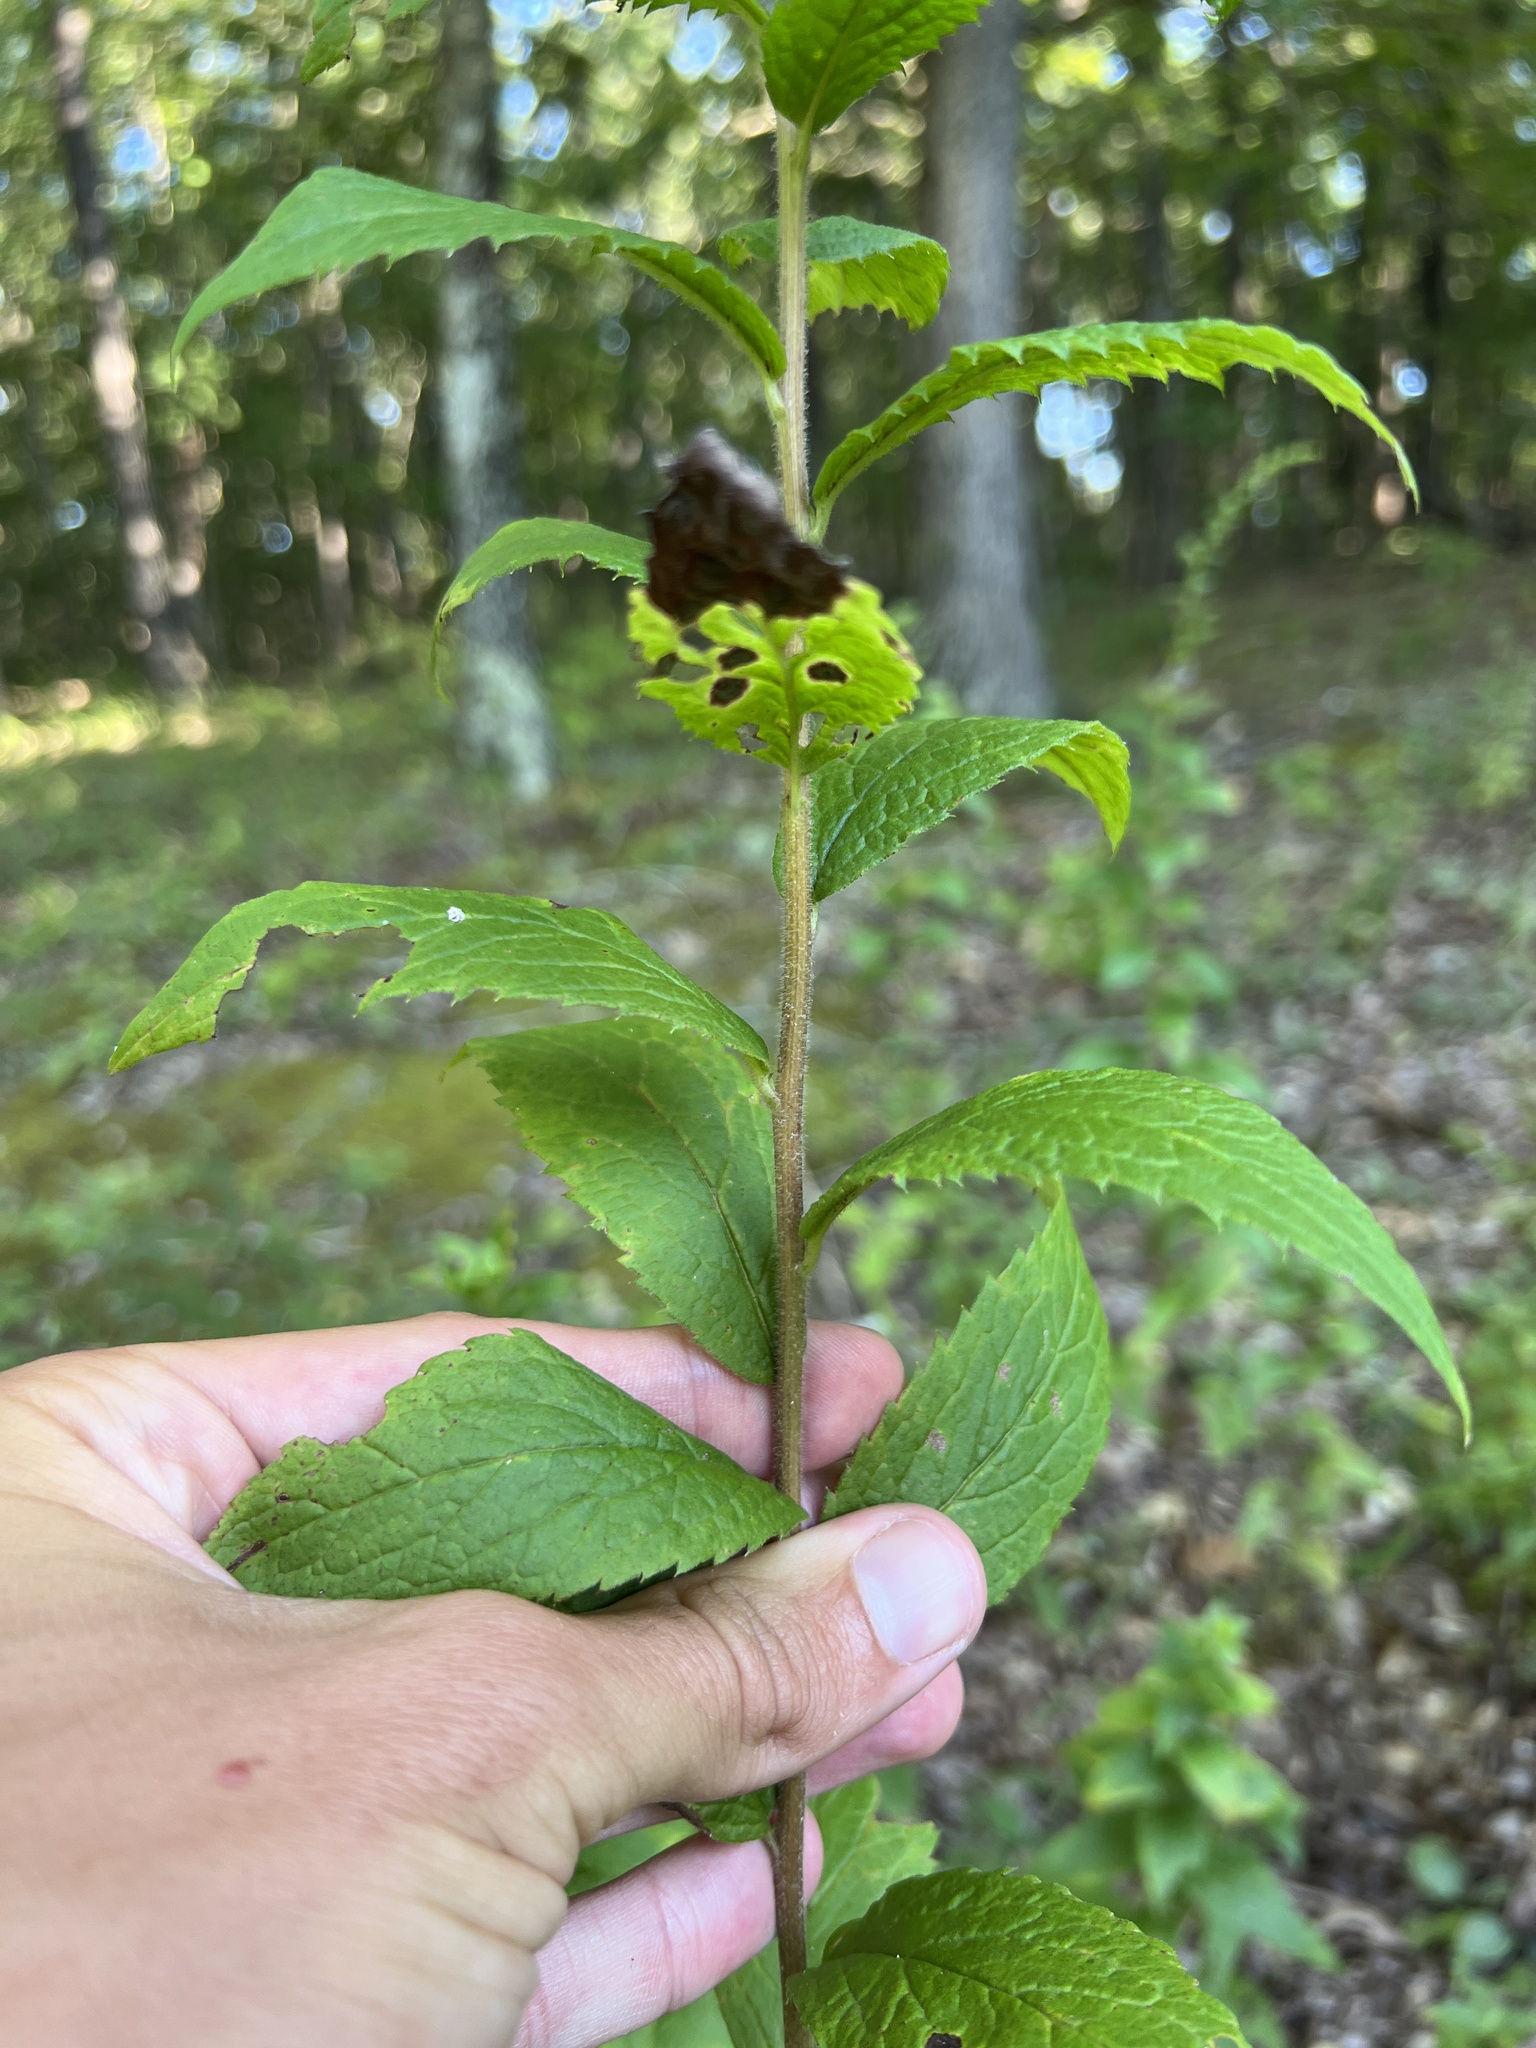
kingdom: Plantae
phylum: Tracheophyta
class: Magnoliopsida
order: Asterales
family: Asteraceae
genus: Solidago
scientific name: Solidago rugosa
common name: Rough-stemmed goldenrod
